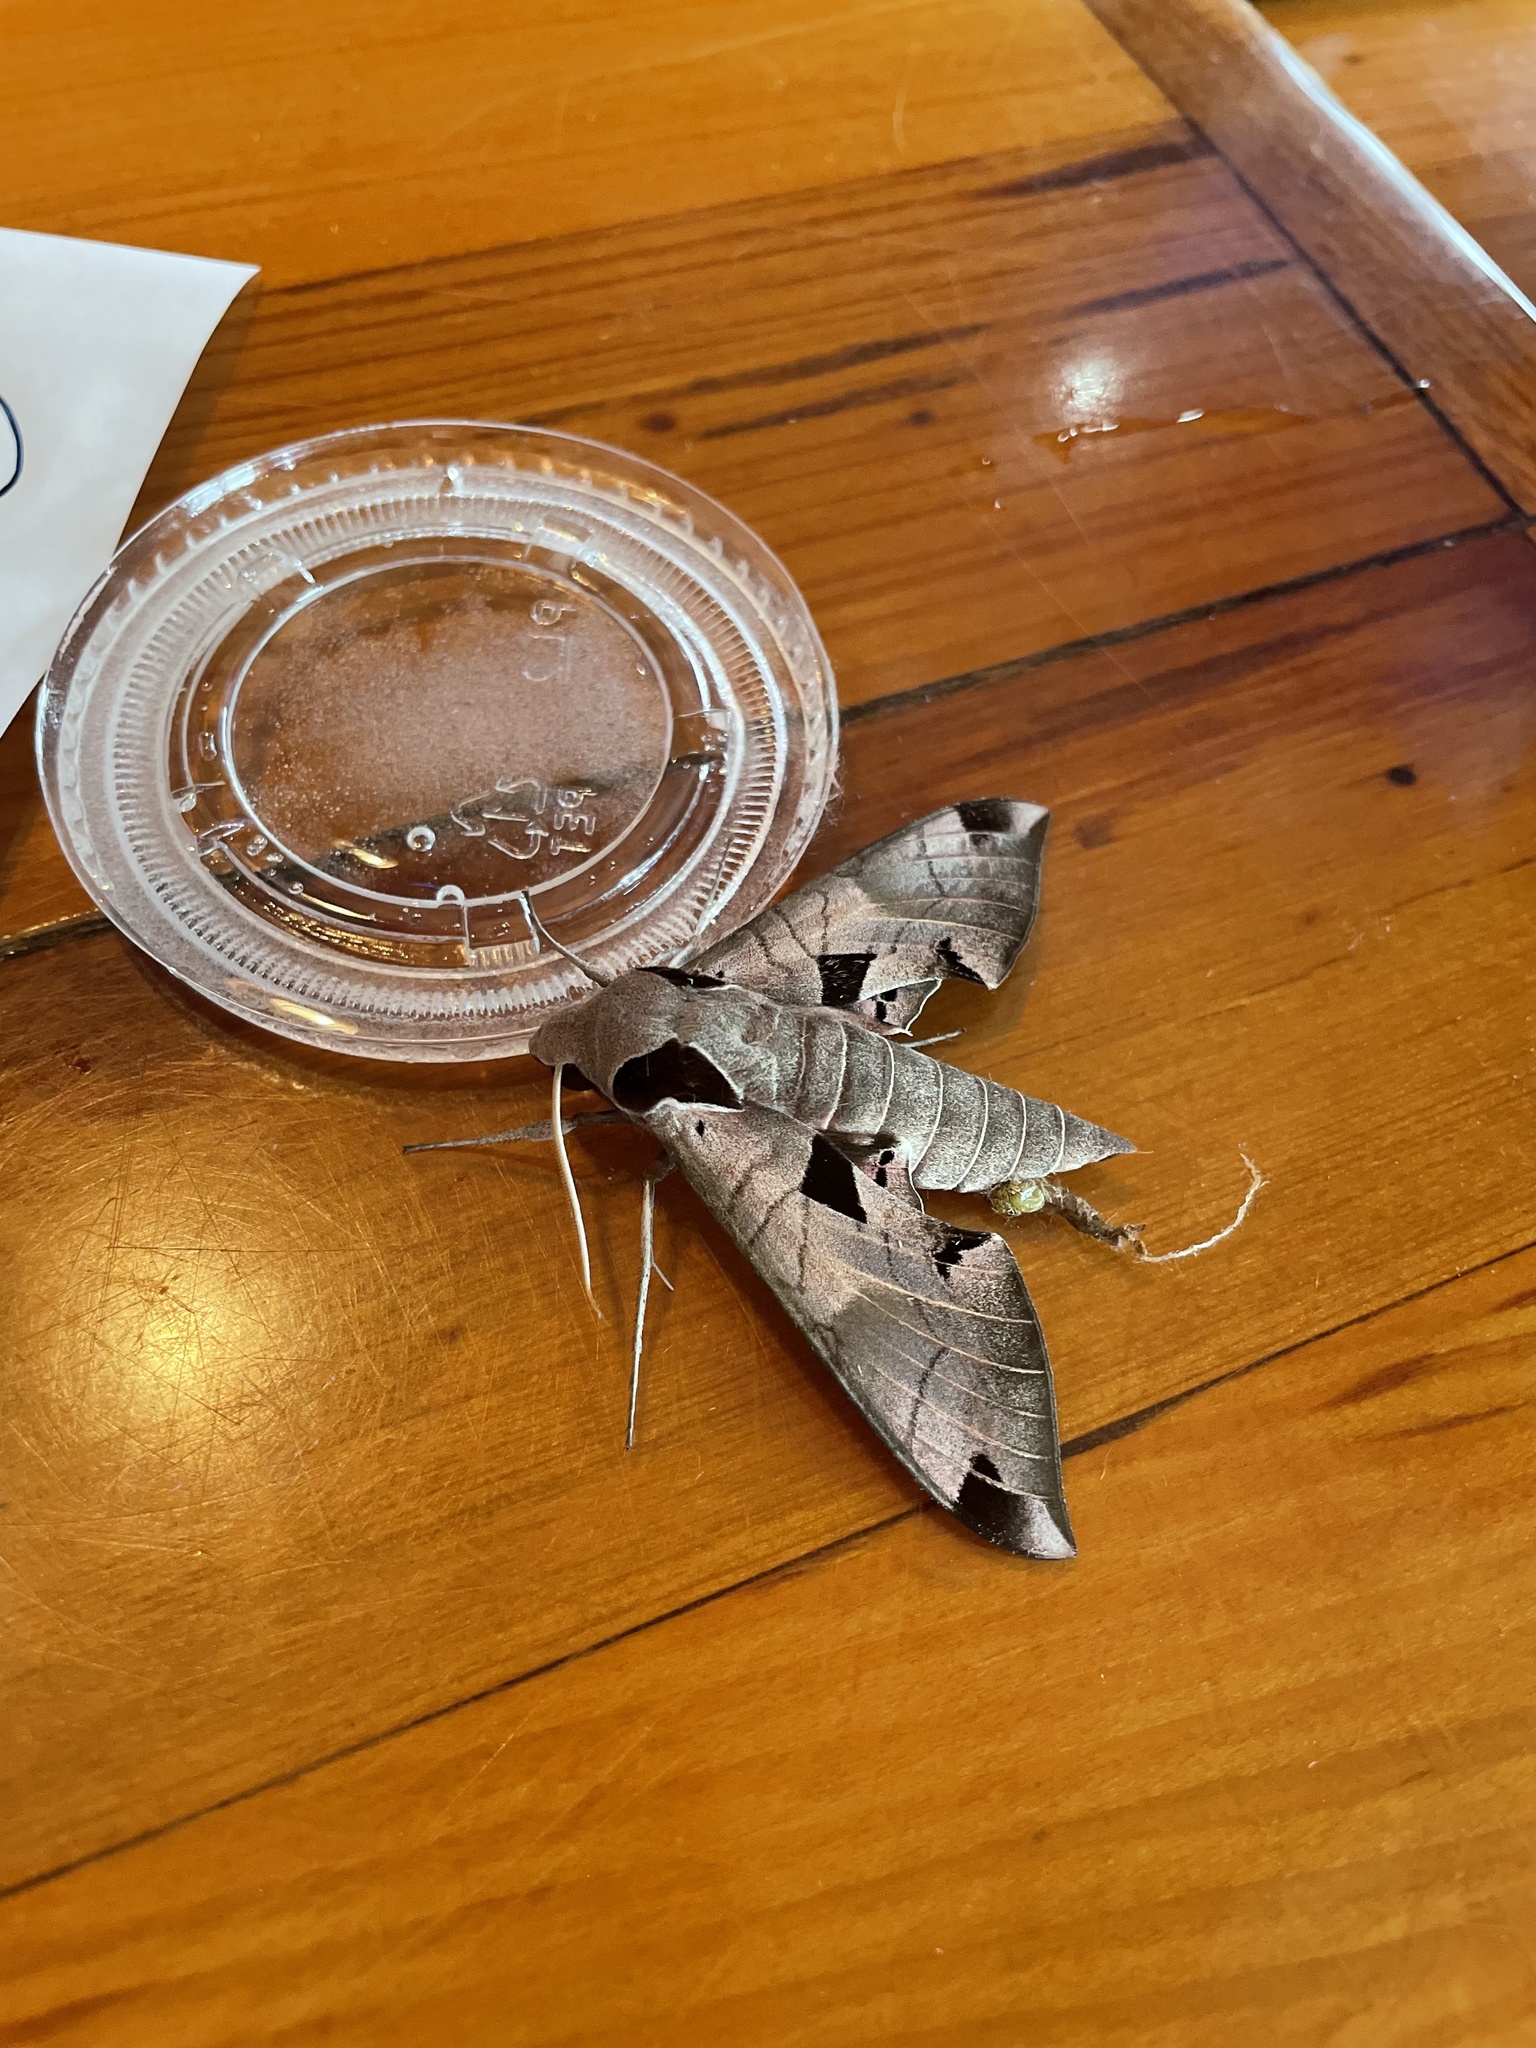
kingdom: Animalia
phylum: Arthropoda
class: Insecta
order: Lepidoptera
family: Sphingidae
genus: Eumorpha
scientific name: Eumorpha achemon
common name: Achemon sphinx
